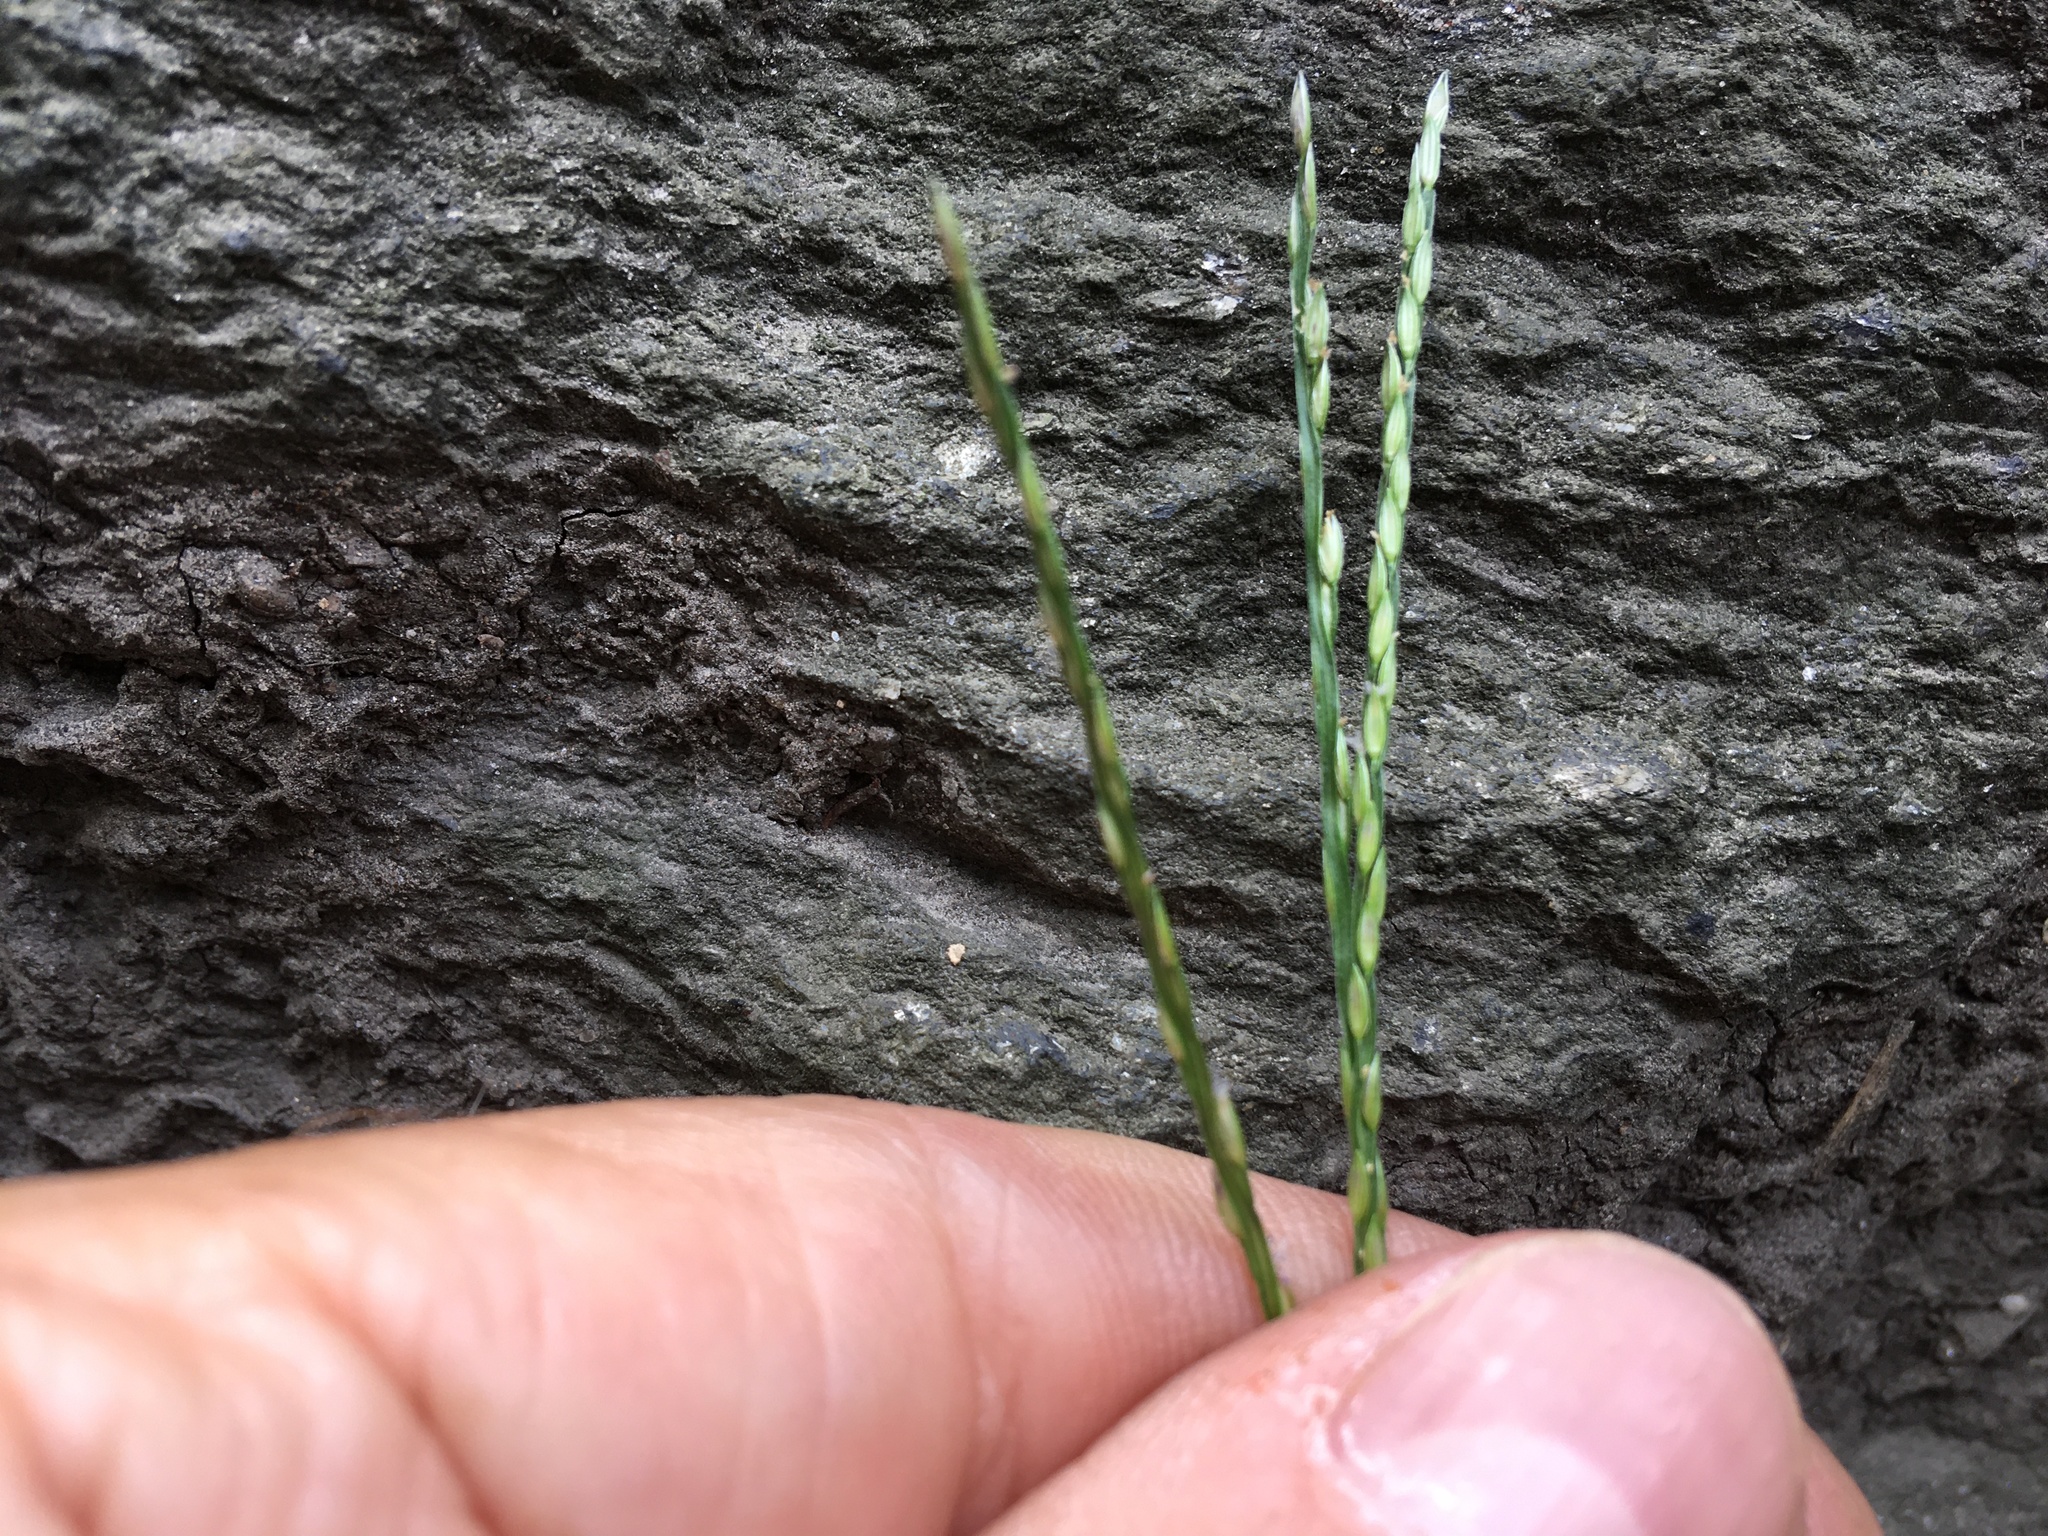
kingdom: Plantae
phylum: Tracheophyta
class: Liliopsida
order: Poales
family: Poaceae
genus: Digitaria
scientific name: Digitaria sanguinalis
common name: Hairy crabgrass
